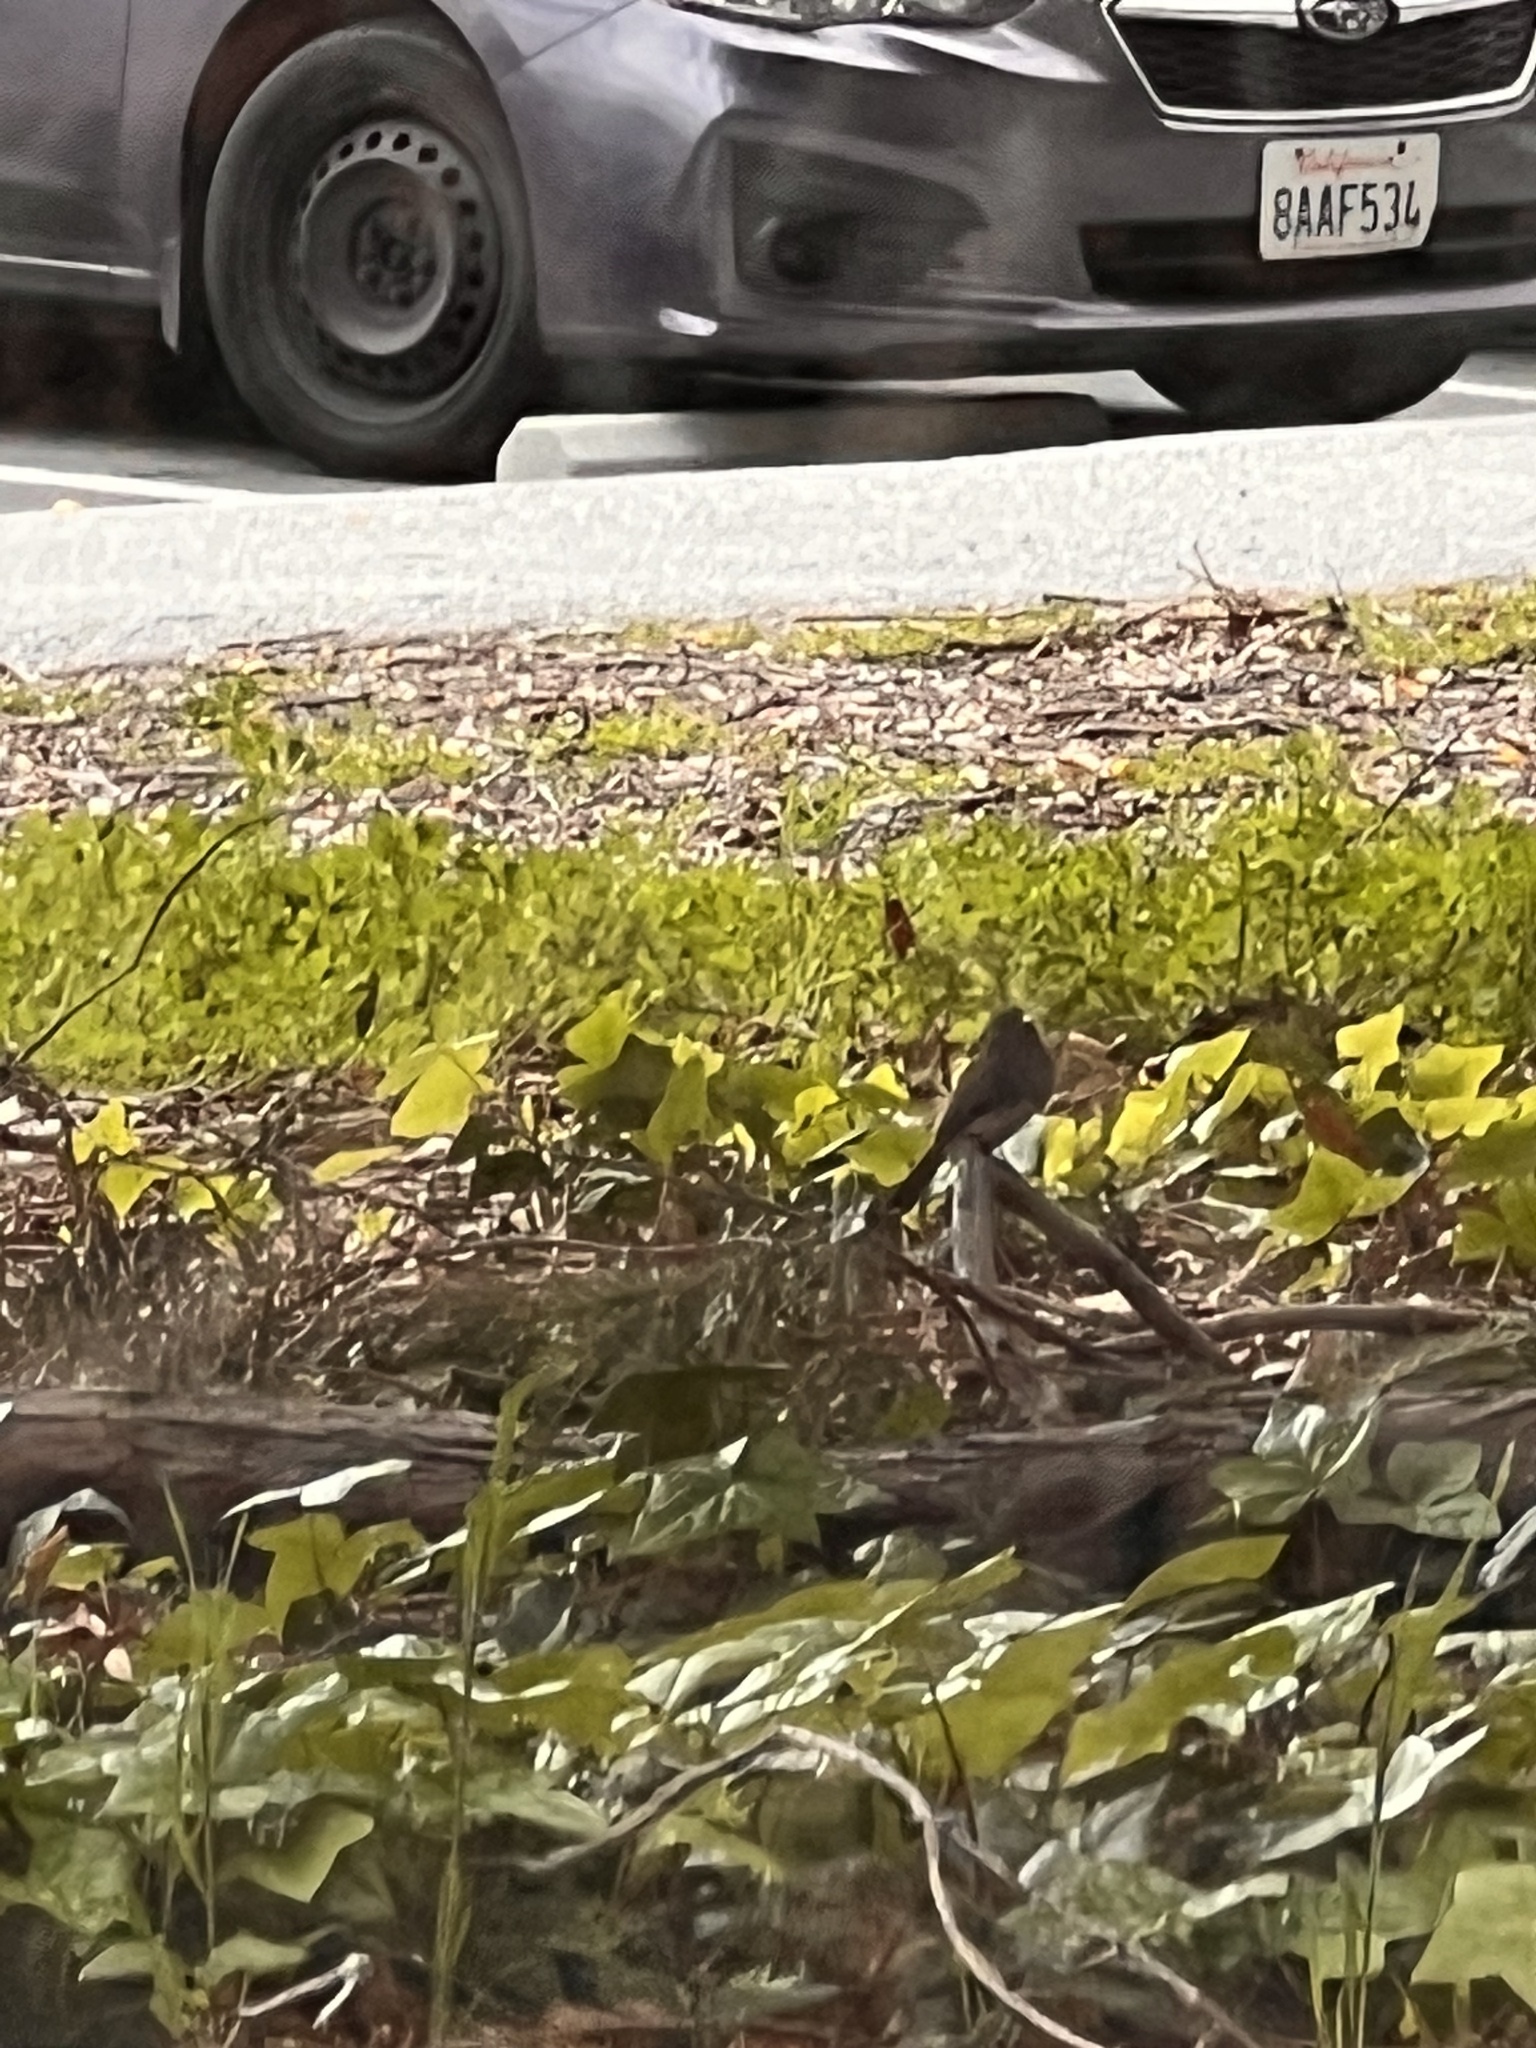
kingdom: Animalia
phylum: Chordata
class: Aves
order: Passeriformes
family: Tyrannidae
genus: Sayornis
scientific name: Sayornis nigricans
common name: Black phoebe
